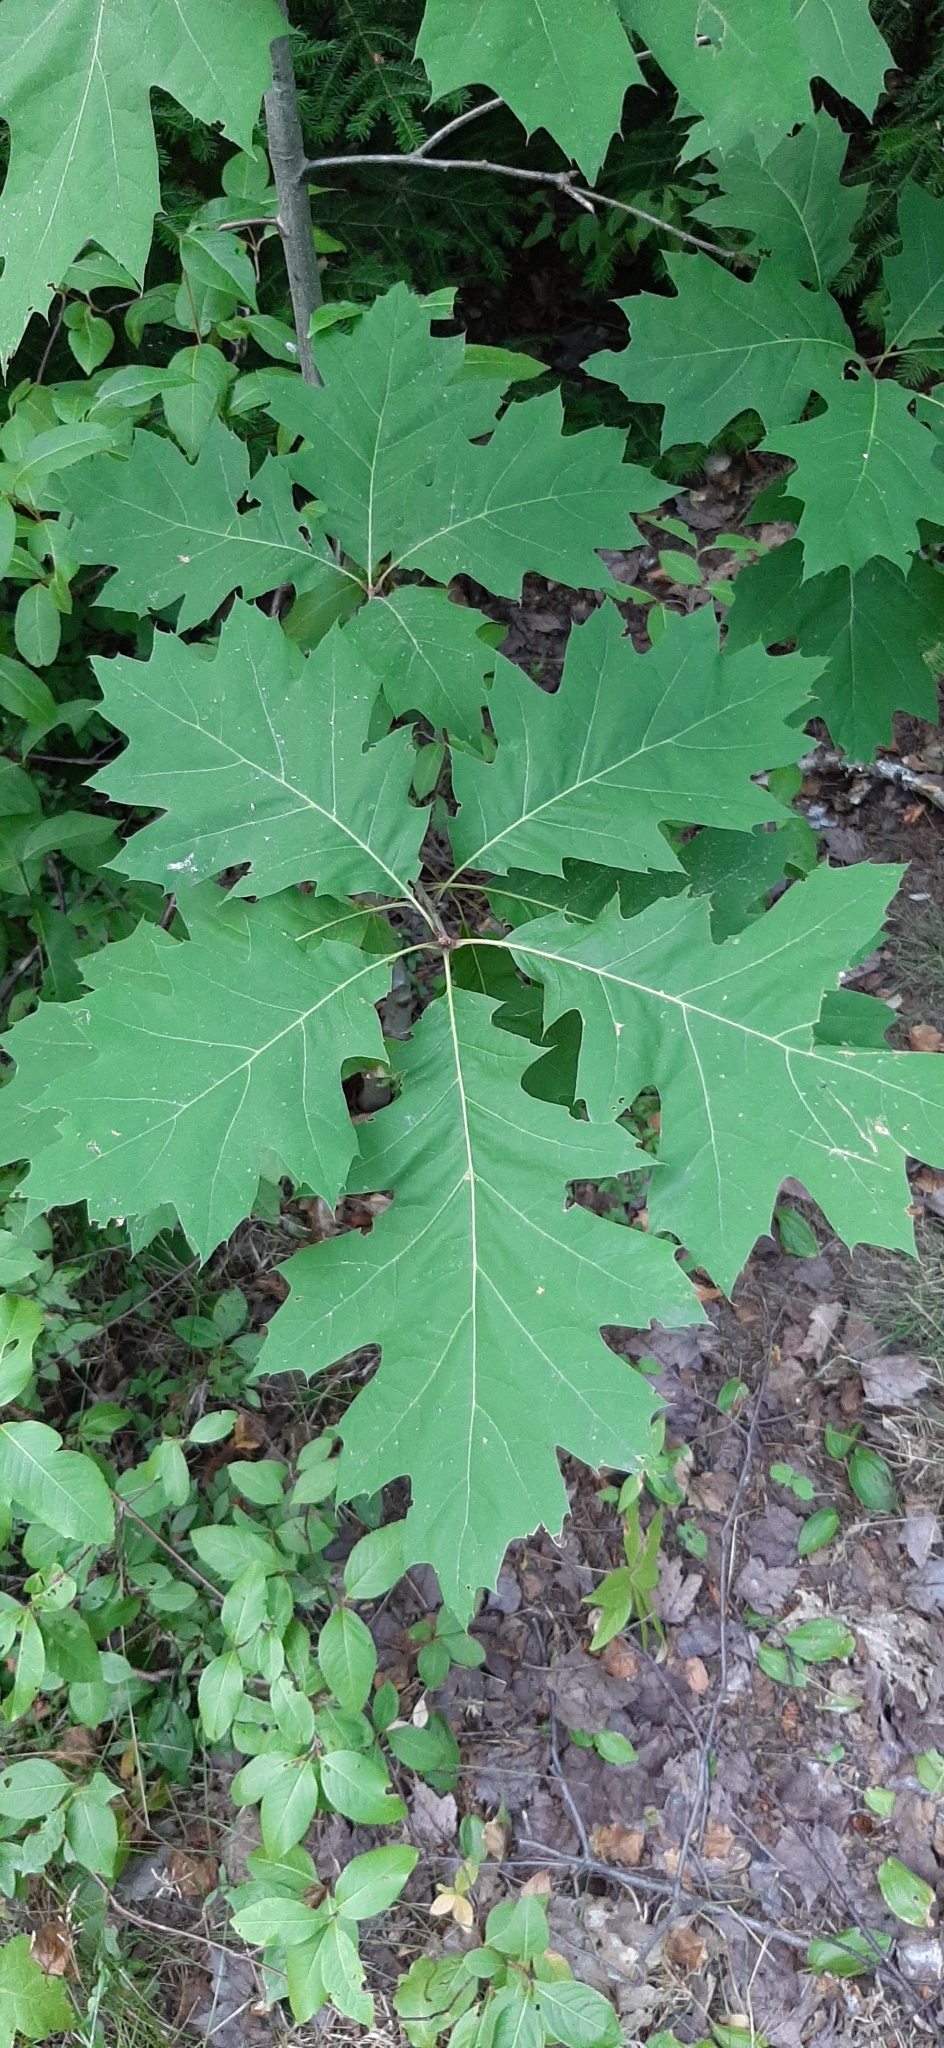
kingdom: Plantae
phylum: Tracheophyta
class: Magnoliopsida
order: Fagales
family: Fagaceae
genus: Quercus
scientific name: Quercus rubra
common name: Red oak
